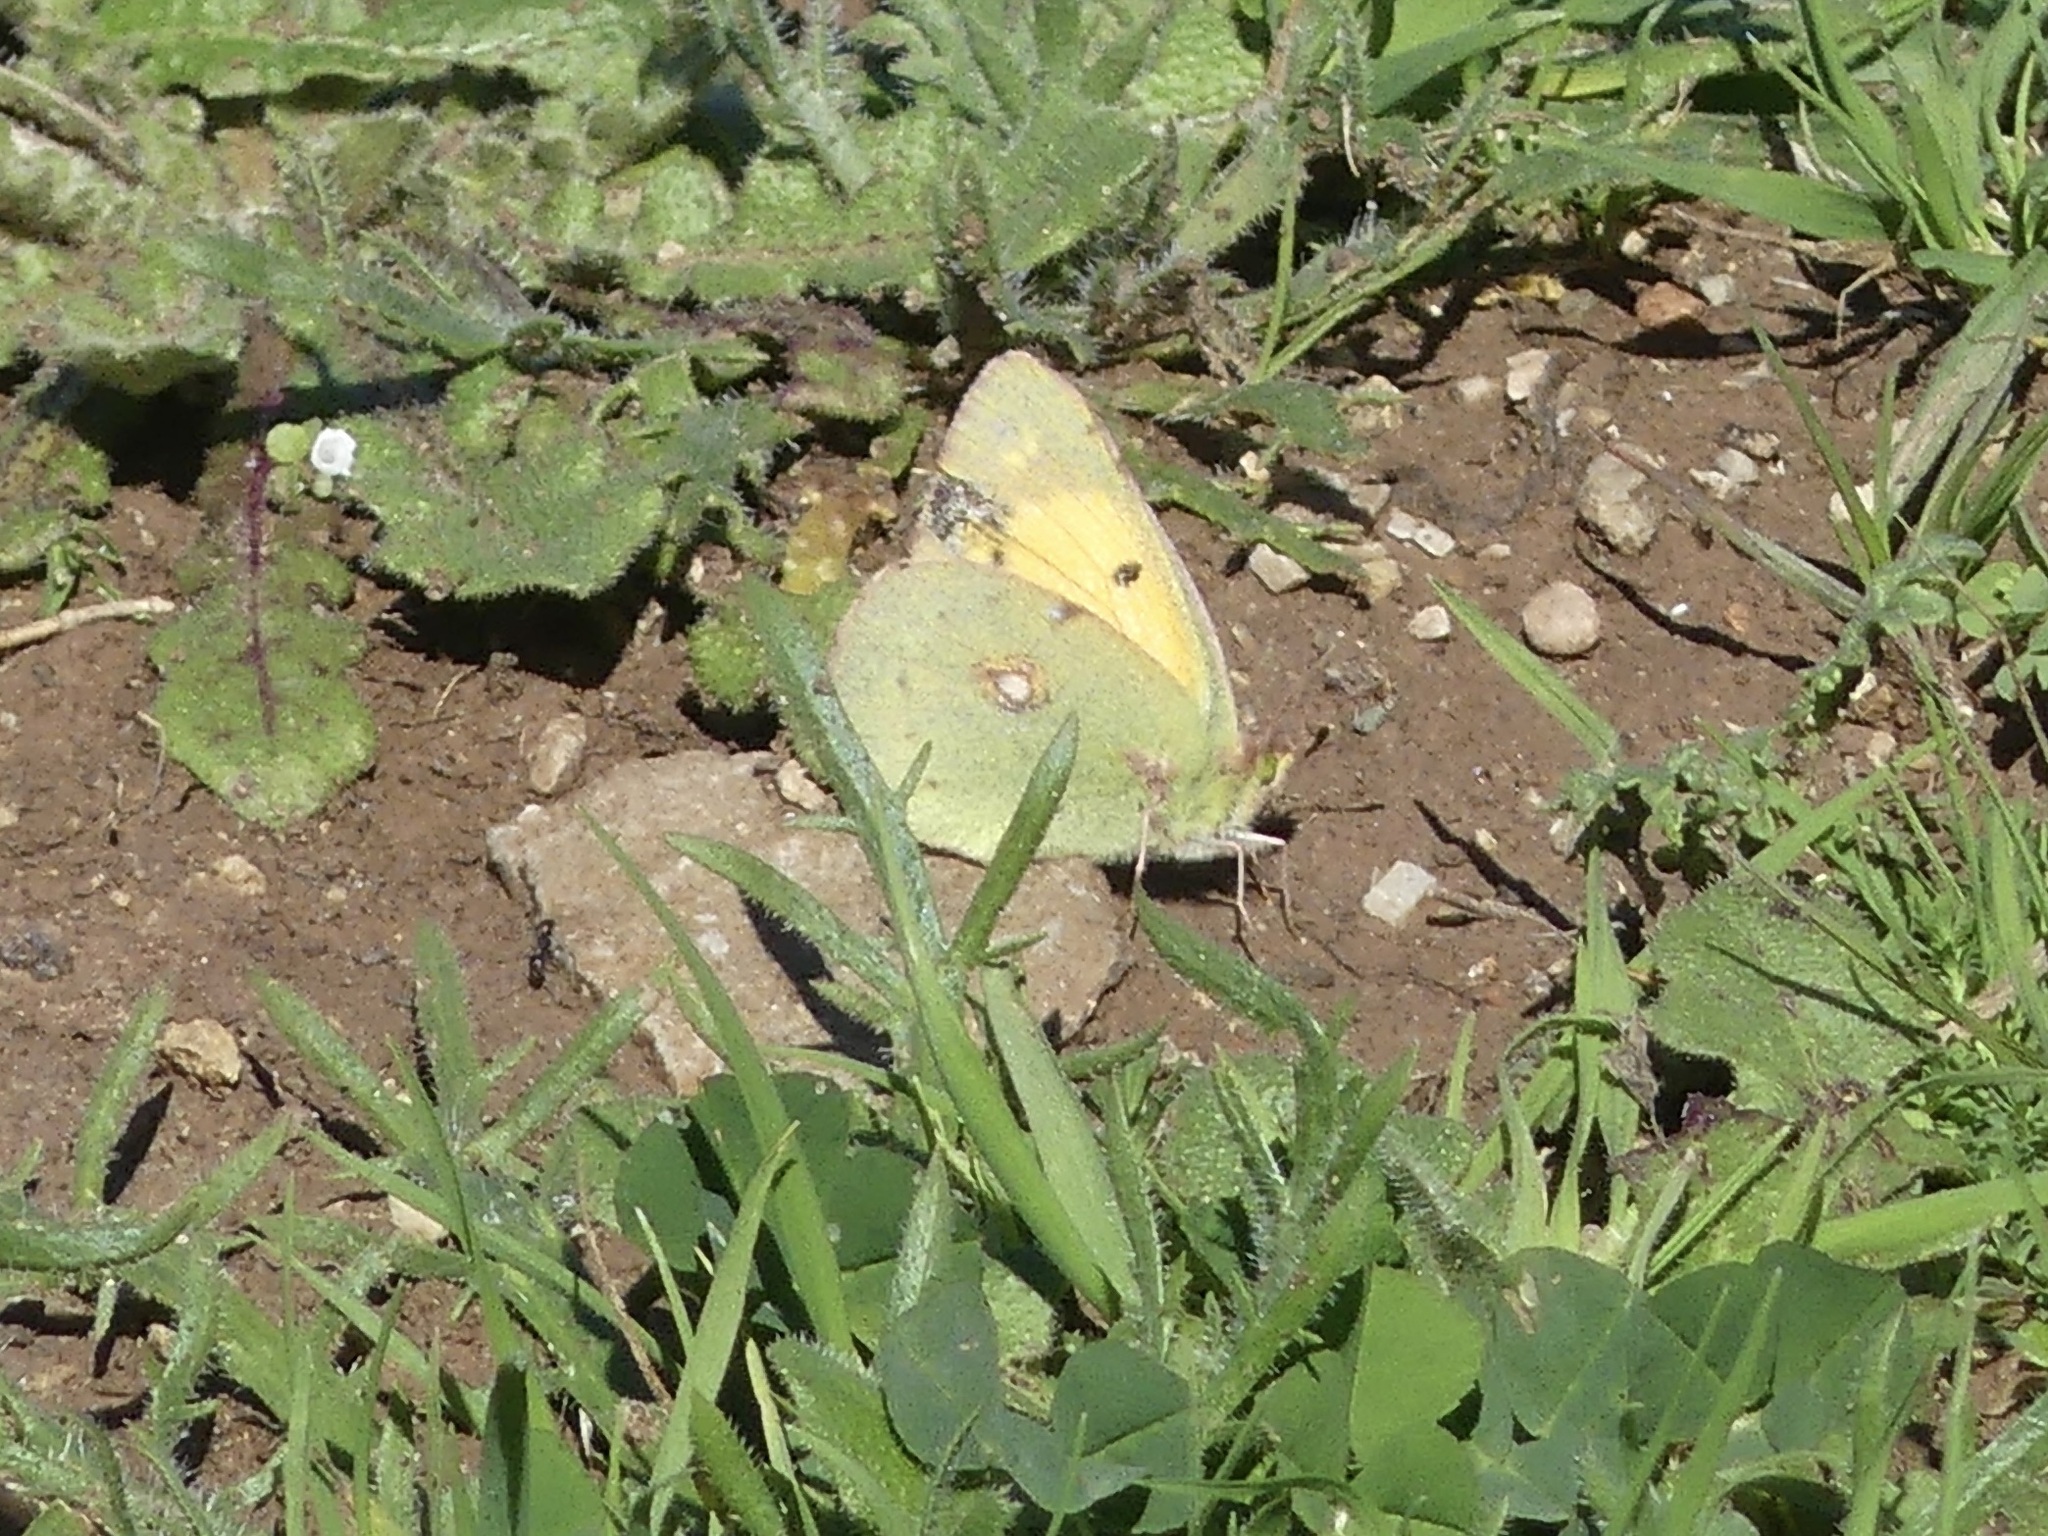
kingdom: Animalia
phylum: Arthropoda
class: Insecta
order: Lepidoptera
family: Pieridae
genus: Colias
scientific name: Colias croceus
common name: Clouded yellow
